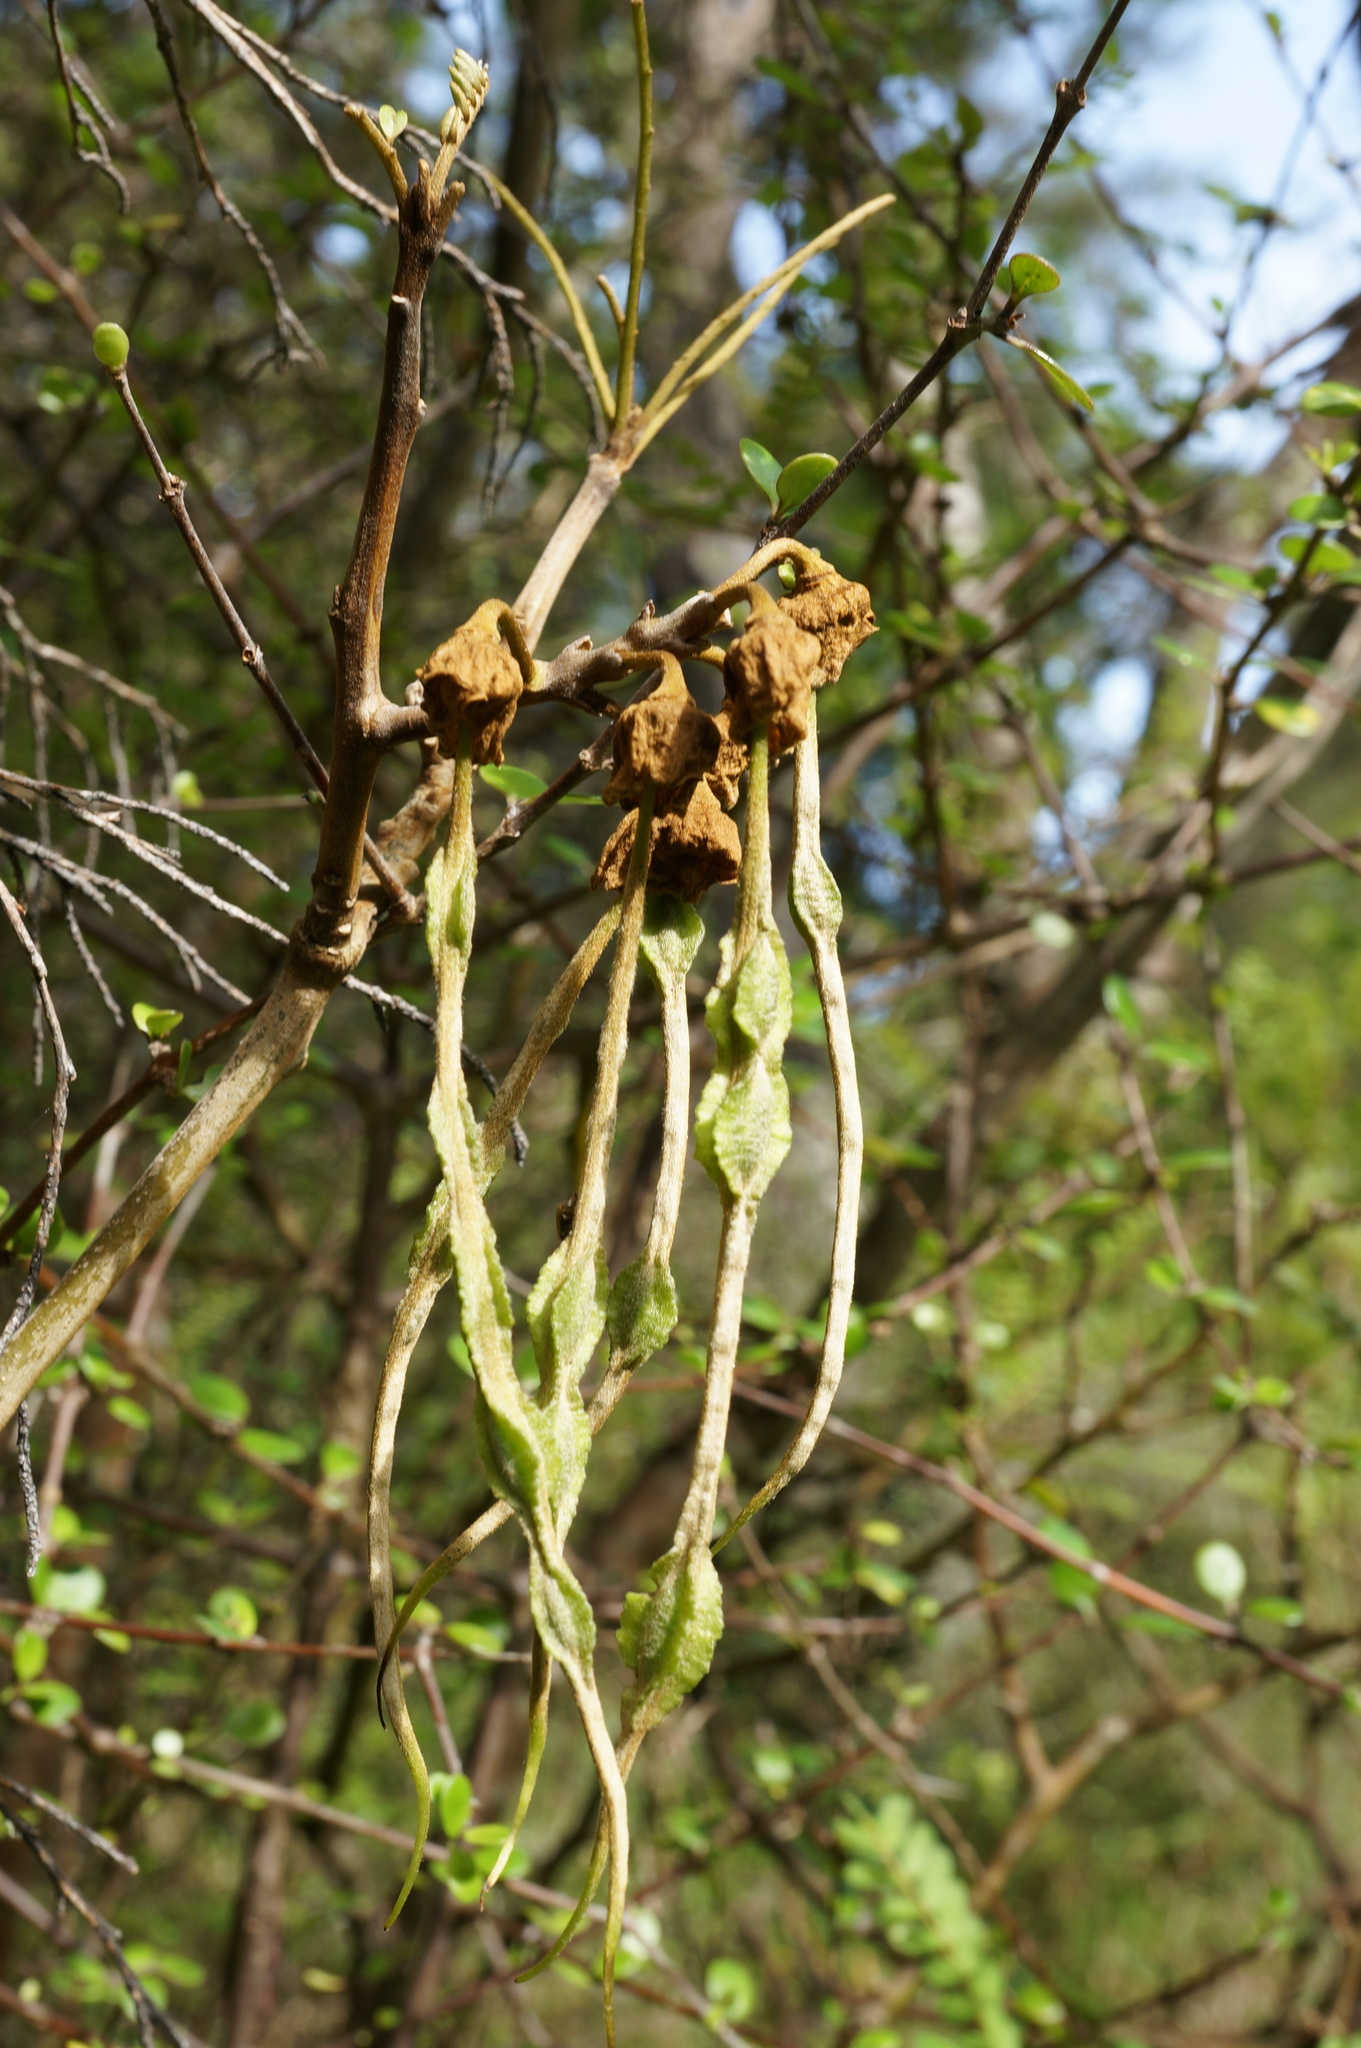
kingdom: Plantae
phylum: Tracheophyta
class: Magnoliopsida
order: Fabales
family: Fabaceae
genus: Sophora
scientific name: Sophora microphylla
